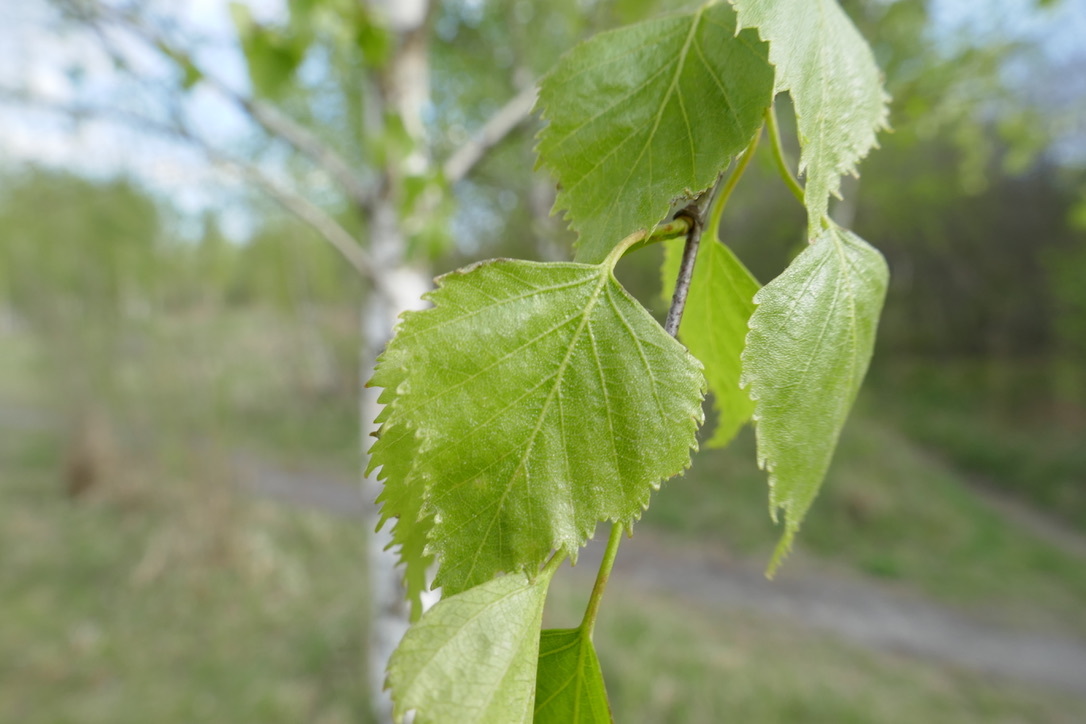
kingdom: Plantae
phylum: Tracheophyta
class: Magnoliopsida
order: Fagales
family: Betulaceae
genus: Betula
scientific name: Betula pendula
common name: Silver birch
